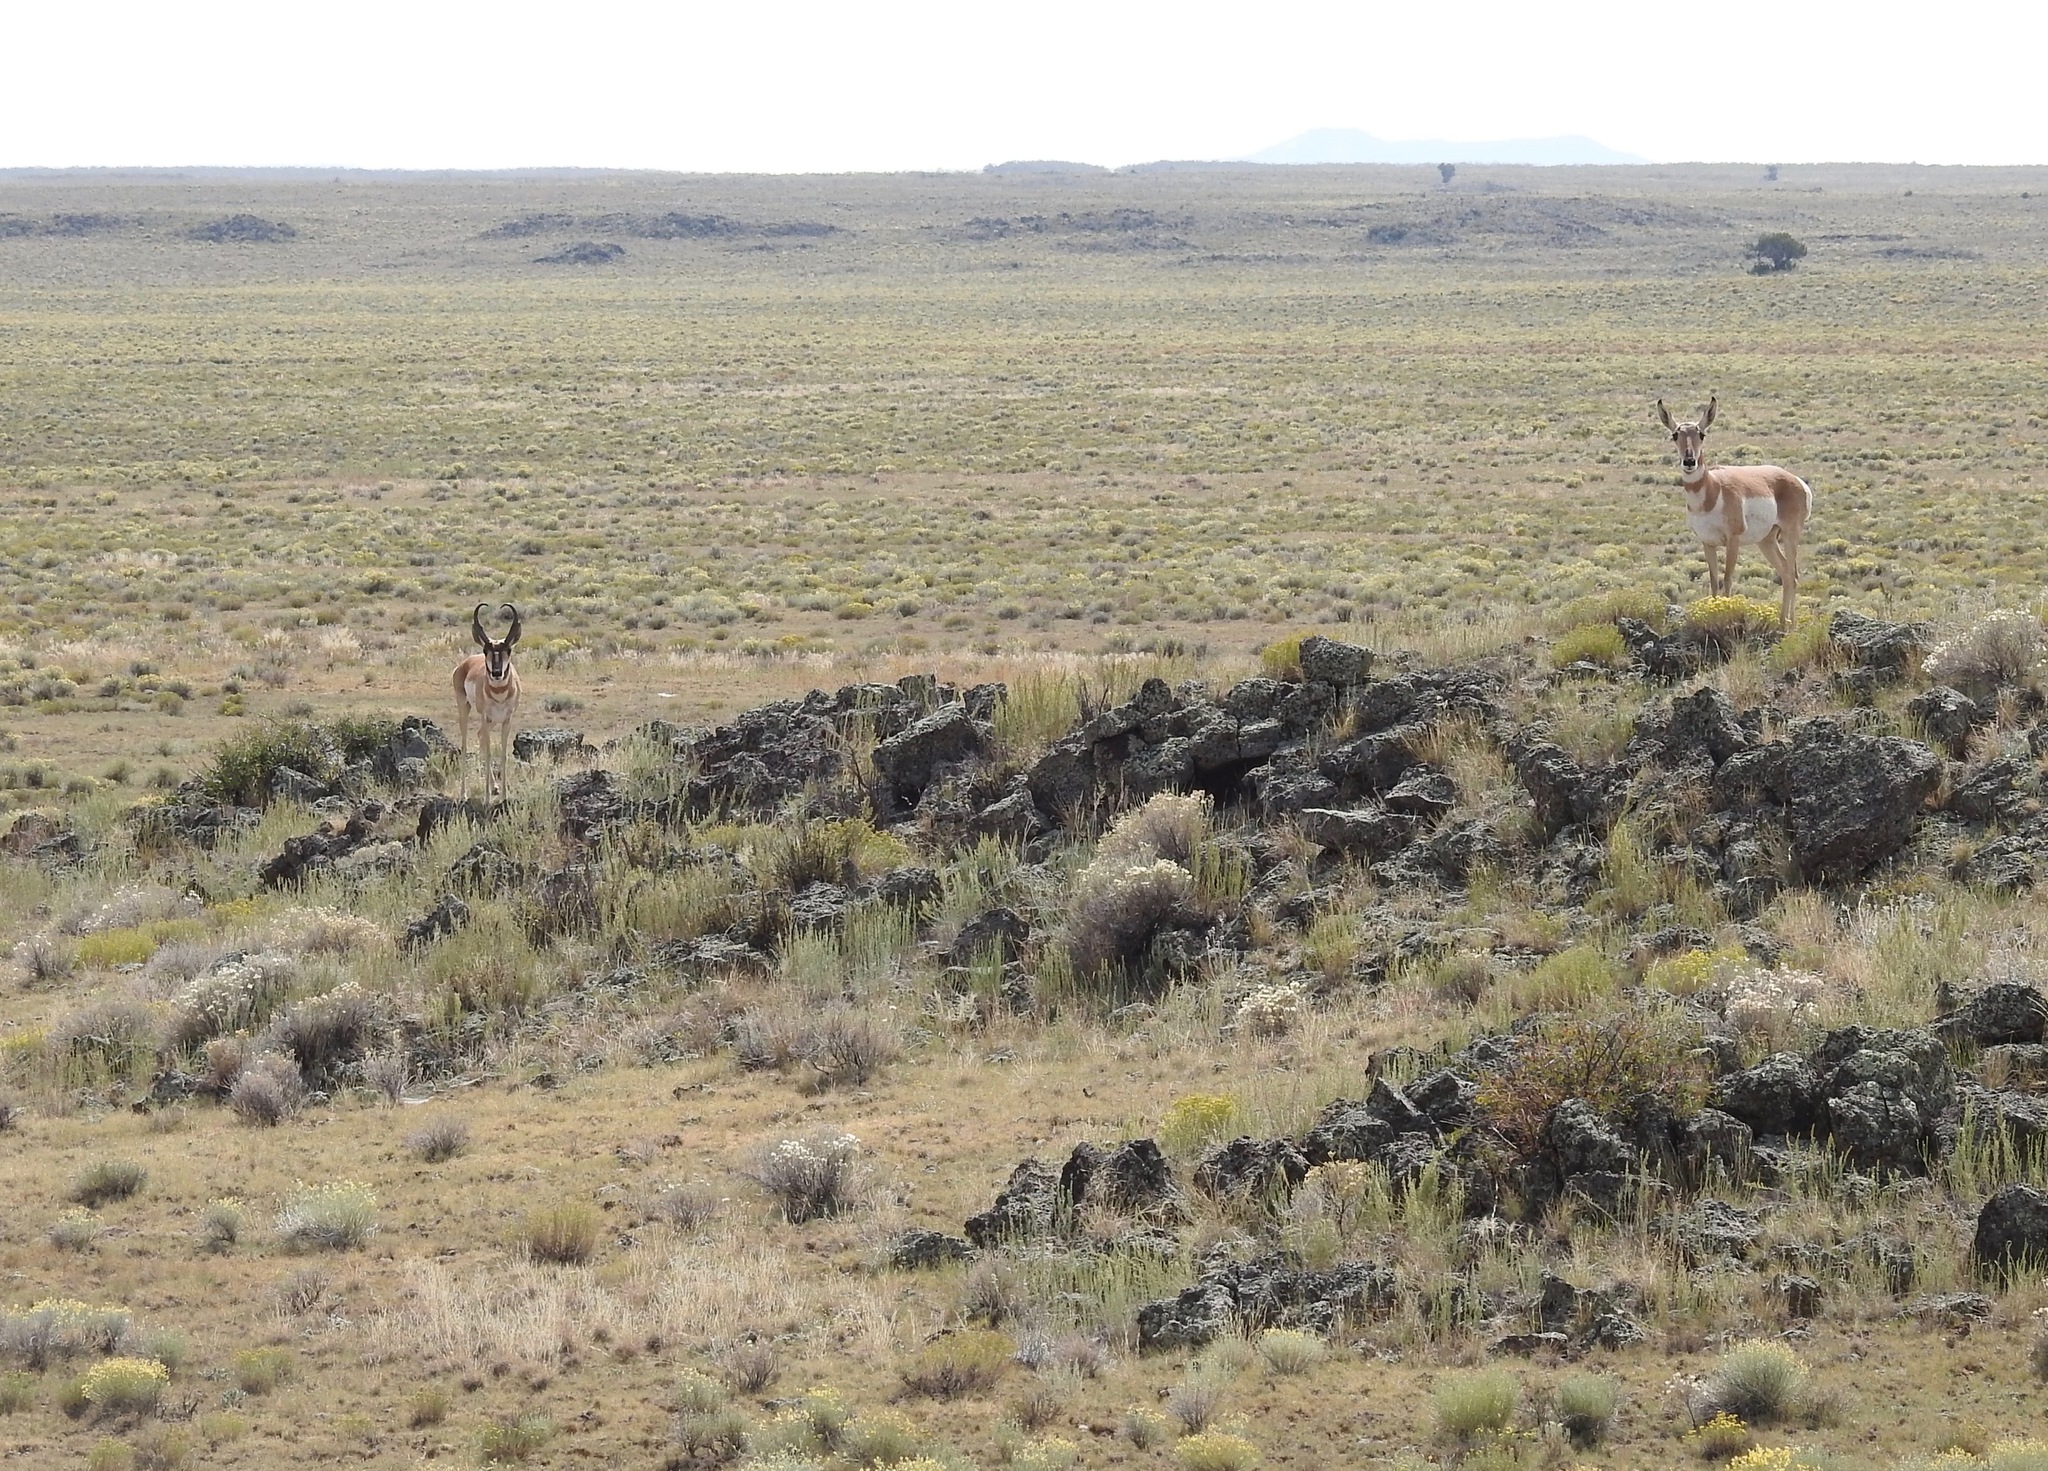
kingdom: Animalia
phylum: Chordata
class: Mammalia
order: Artiodactyla
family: Antilocapridae
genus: Antilocapra
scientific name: Antilocapra americana
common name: Pronghorn
